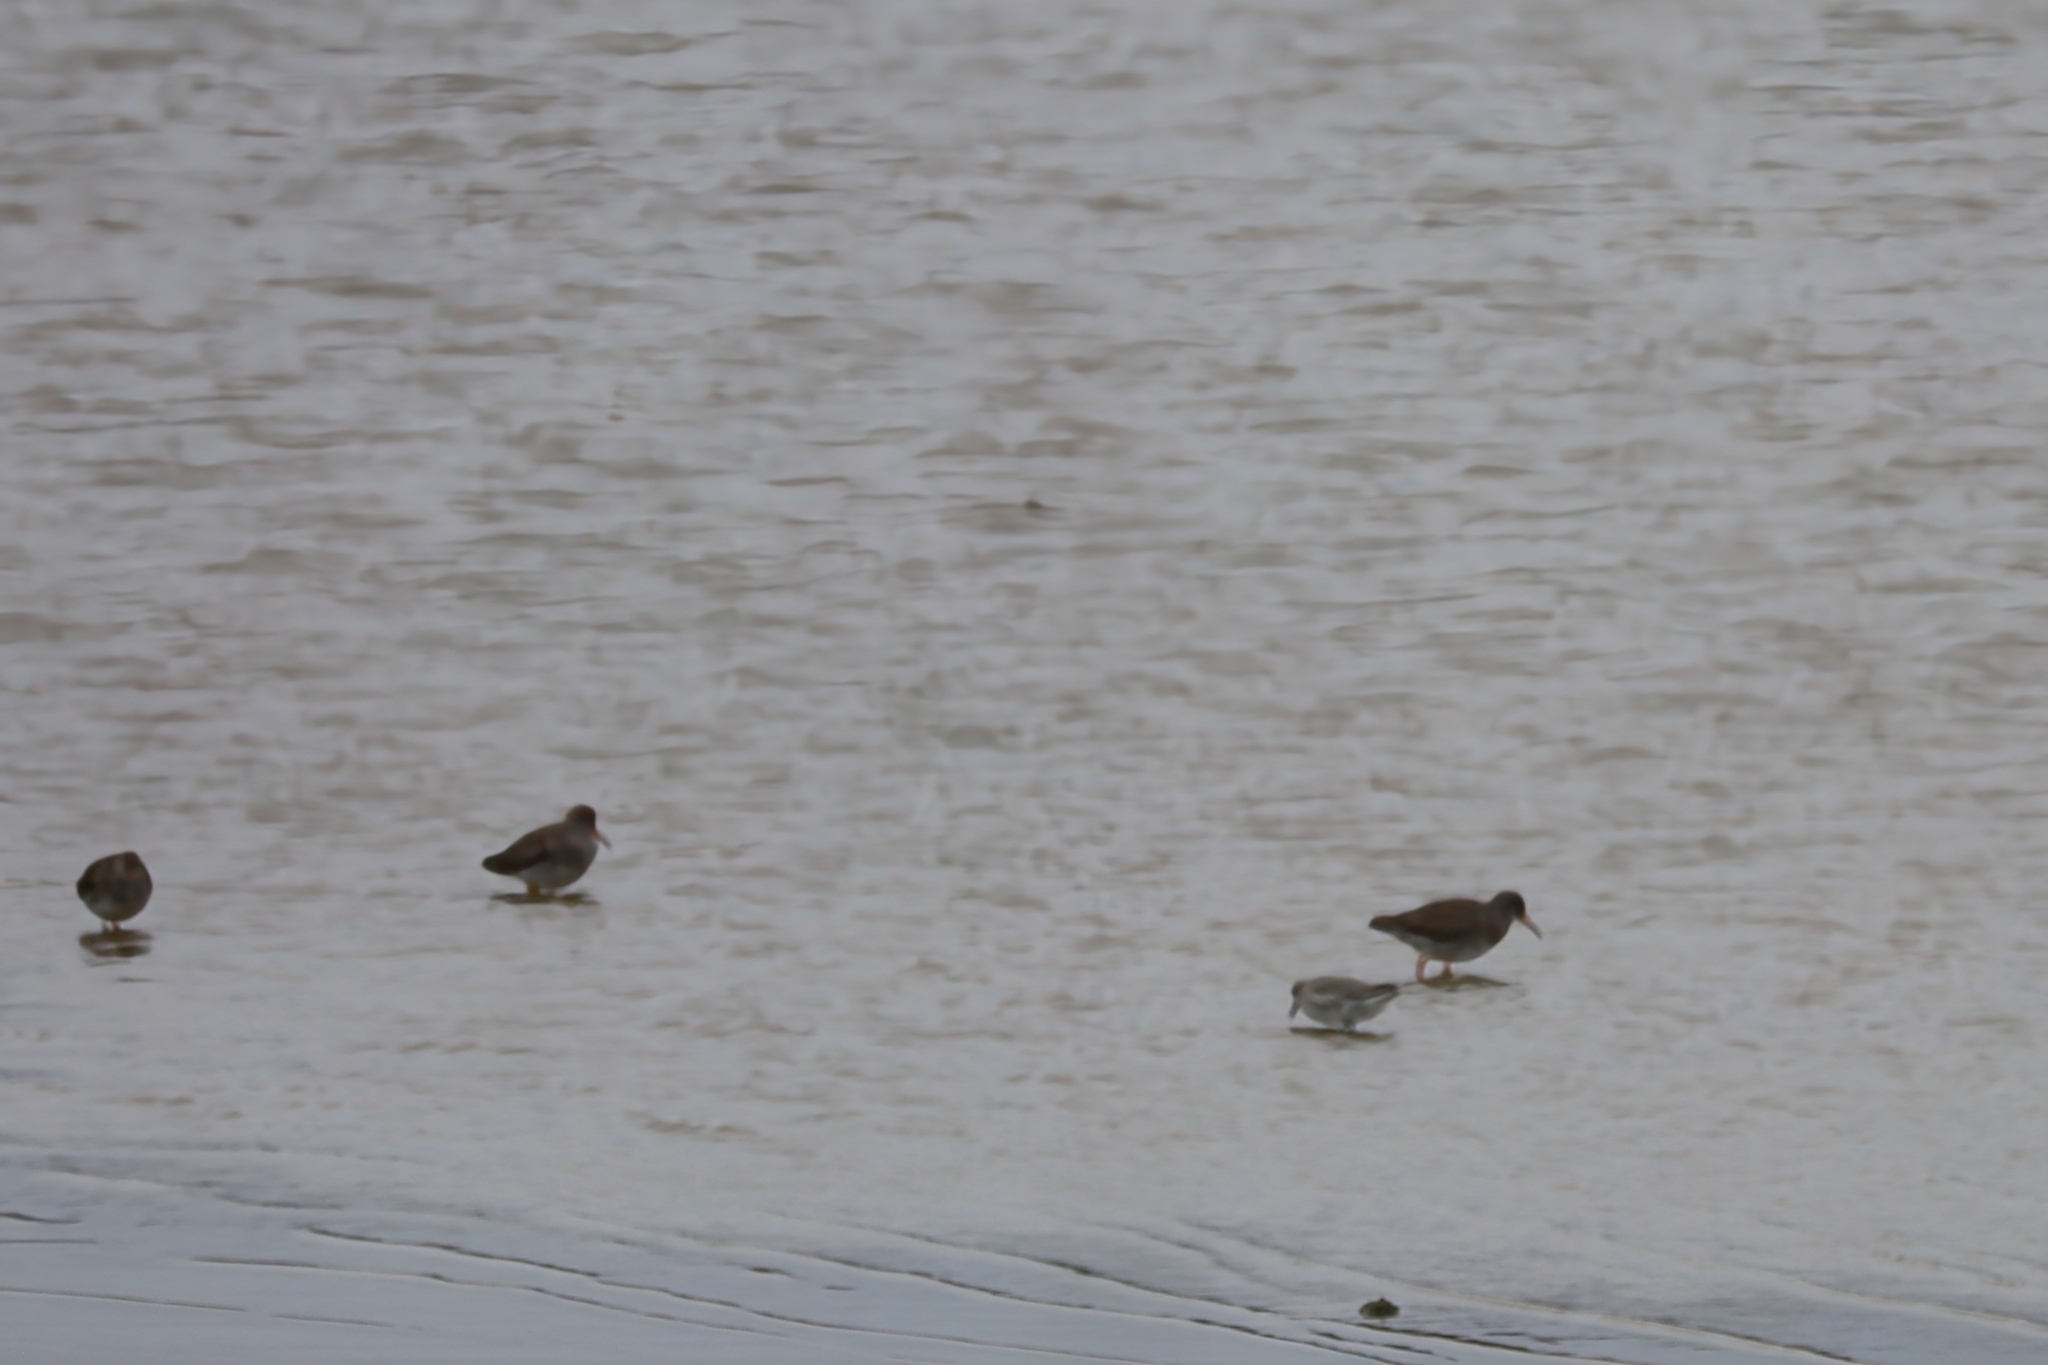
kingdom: Animalia
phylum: Chordata
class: Aves
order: Charadriiformes
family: Scolopacidae
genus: Calidris
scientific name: Calidris canutus
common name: Red knot
